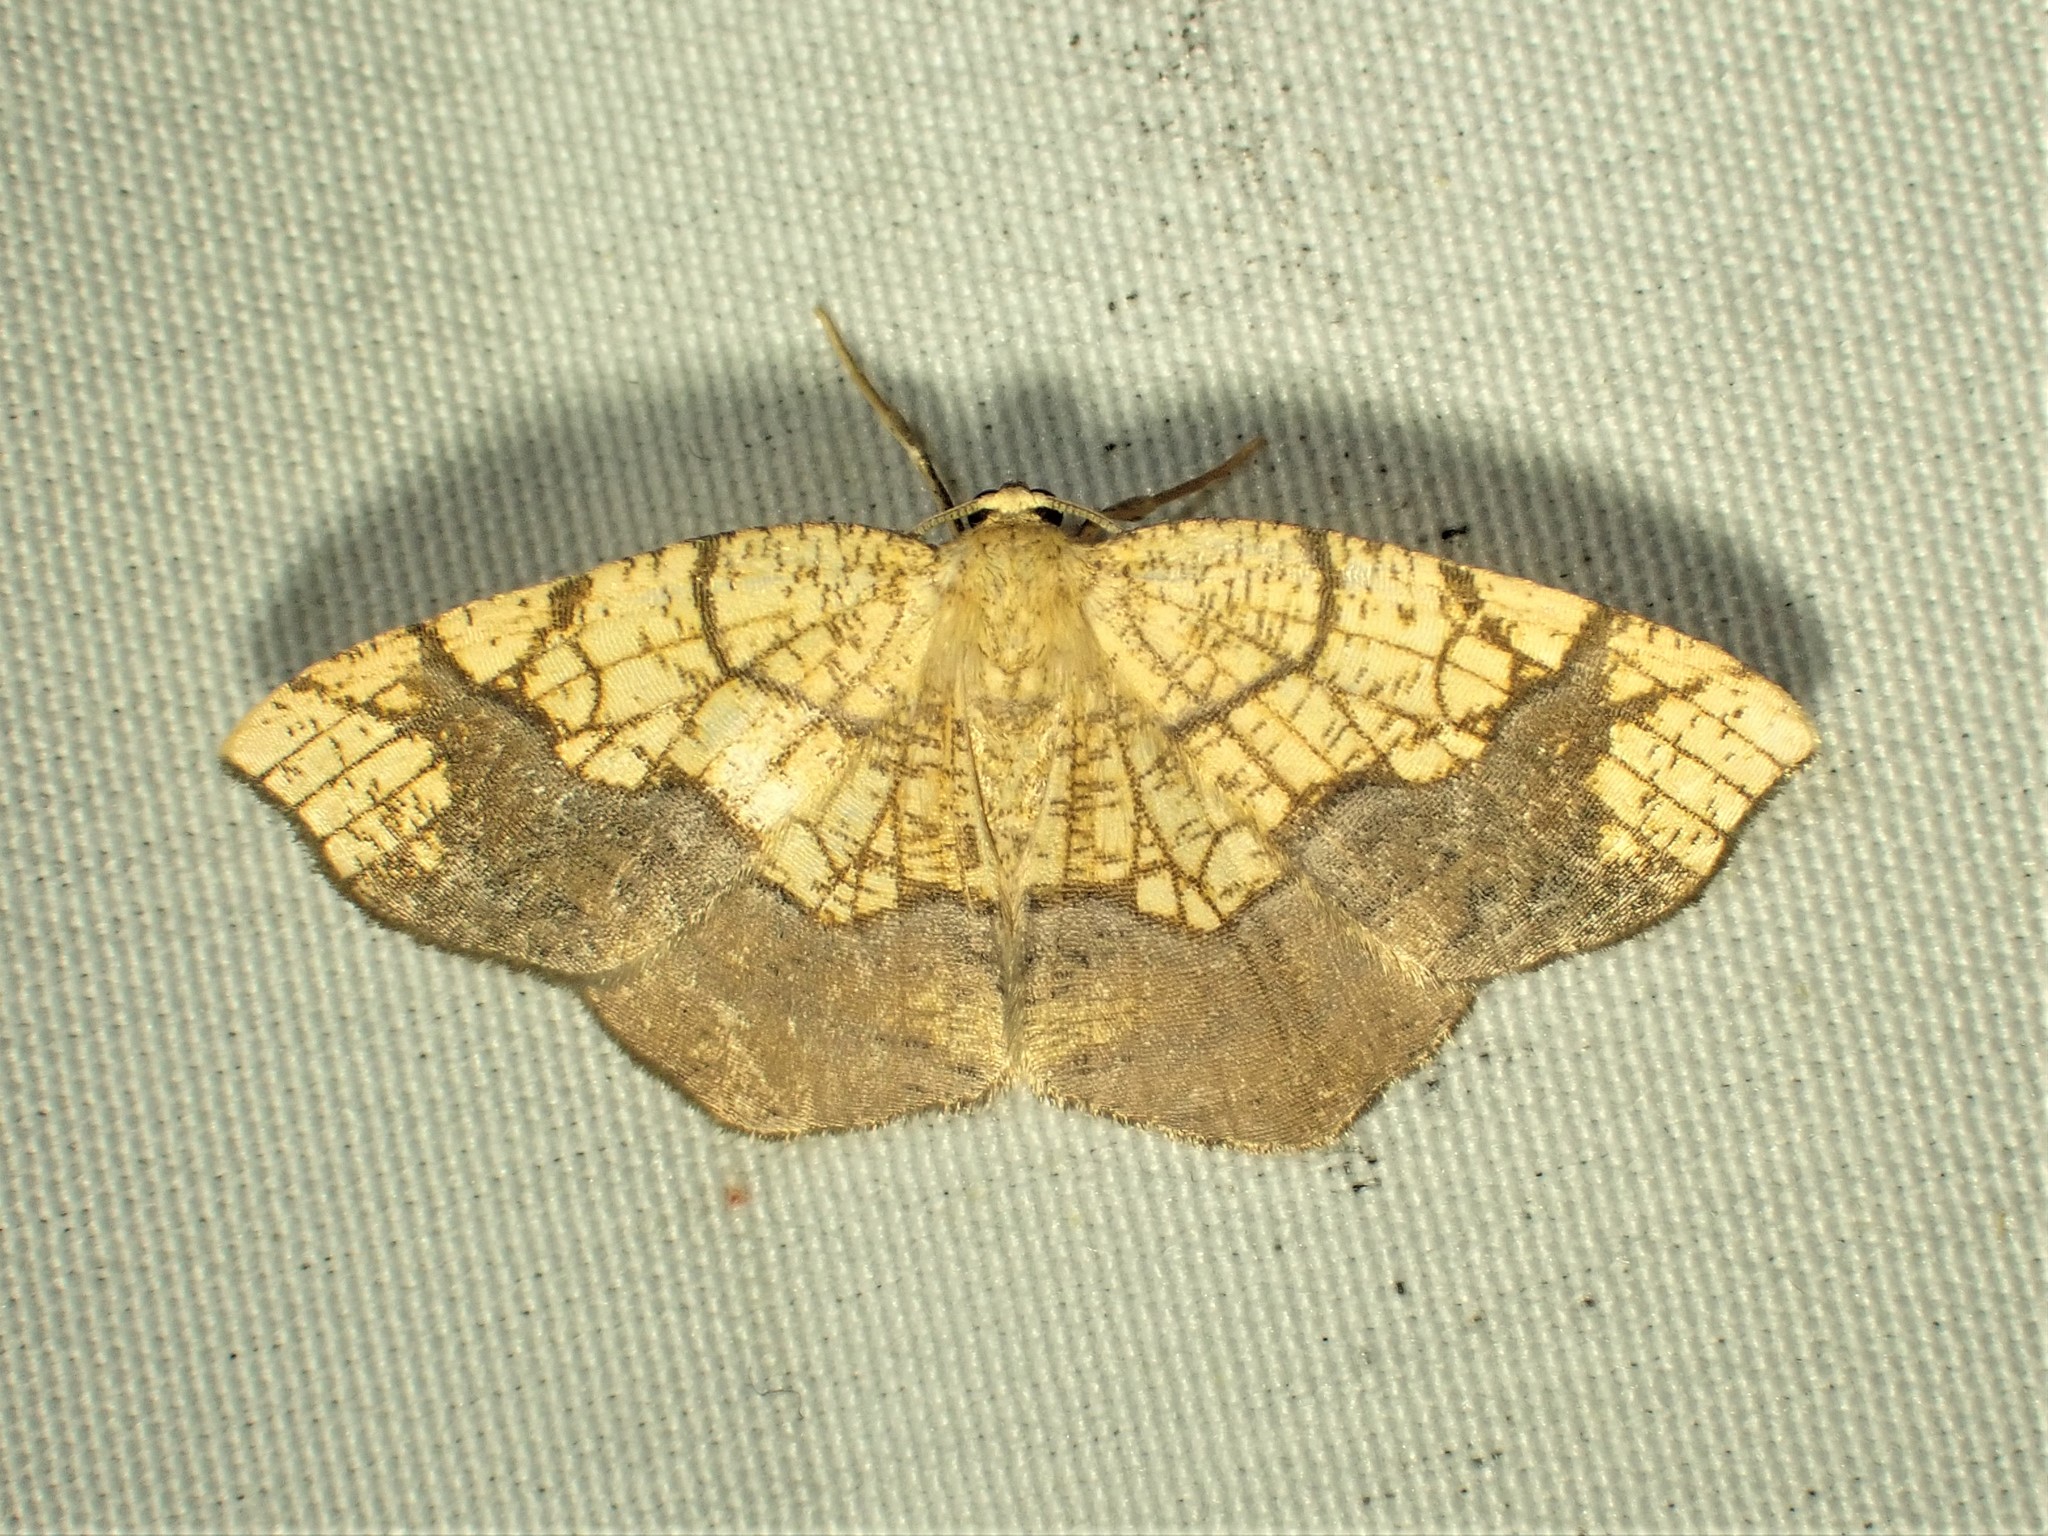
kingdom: Animalia
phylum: Arthropoda
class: Insecta
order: Lepidoptera
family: Geometridae
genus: Nematocampa
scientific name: Nematocampa resistaria
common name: Horned spanworm moth
